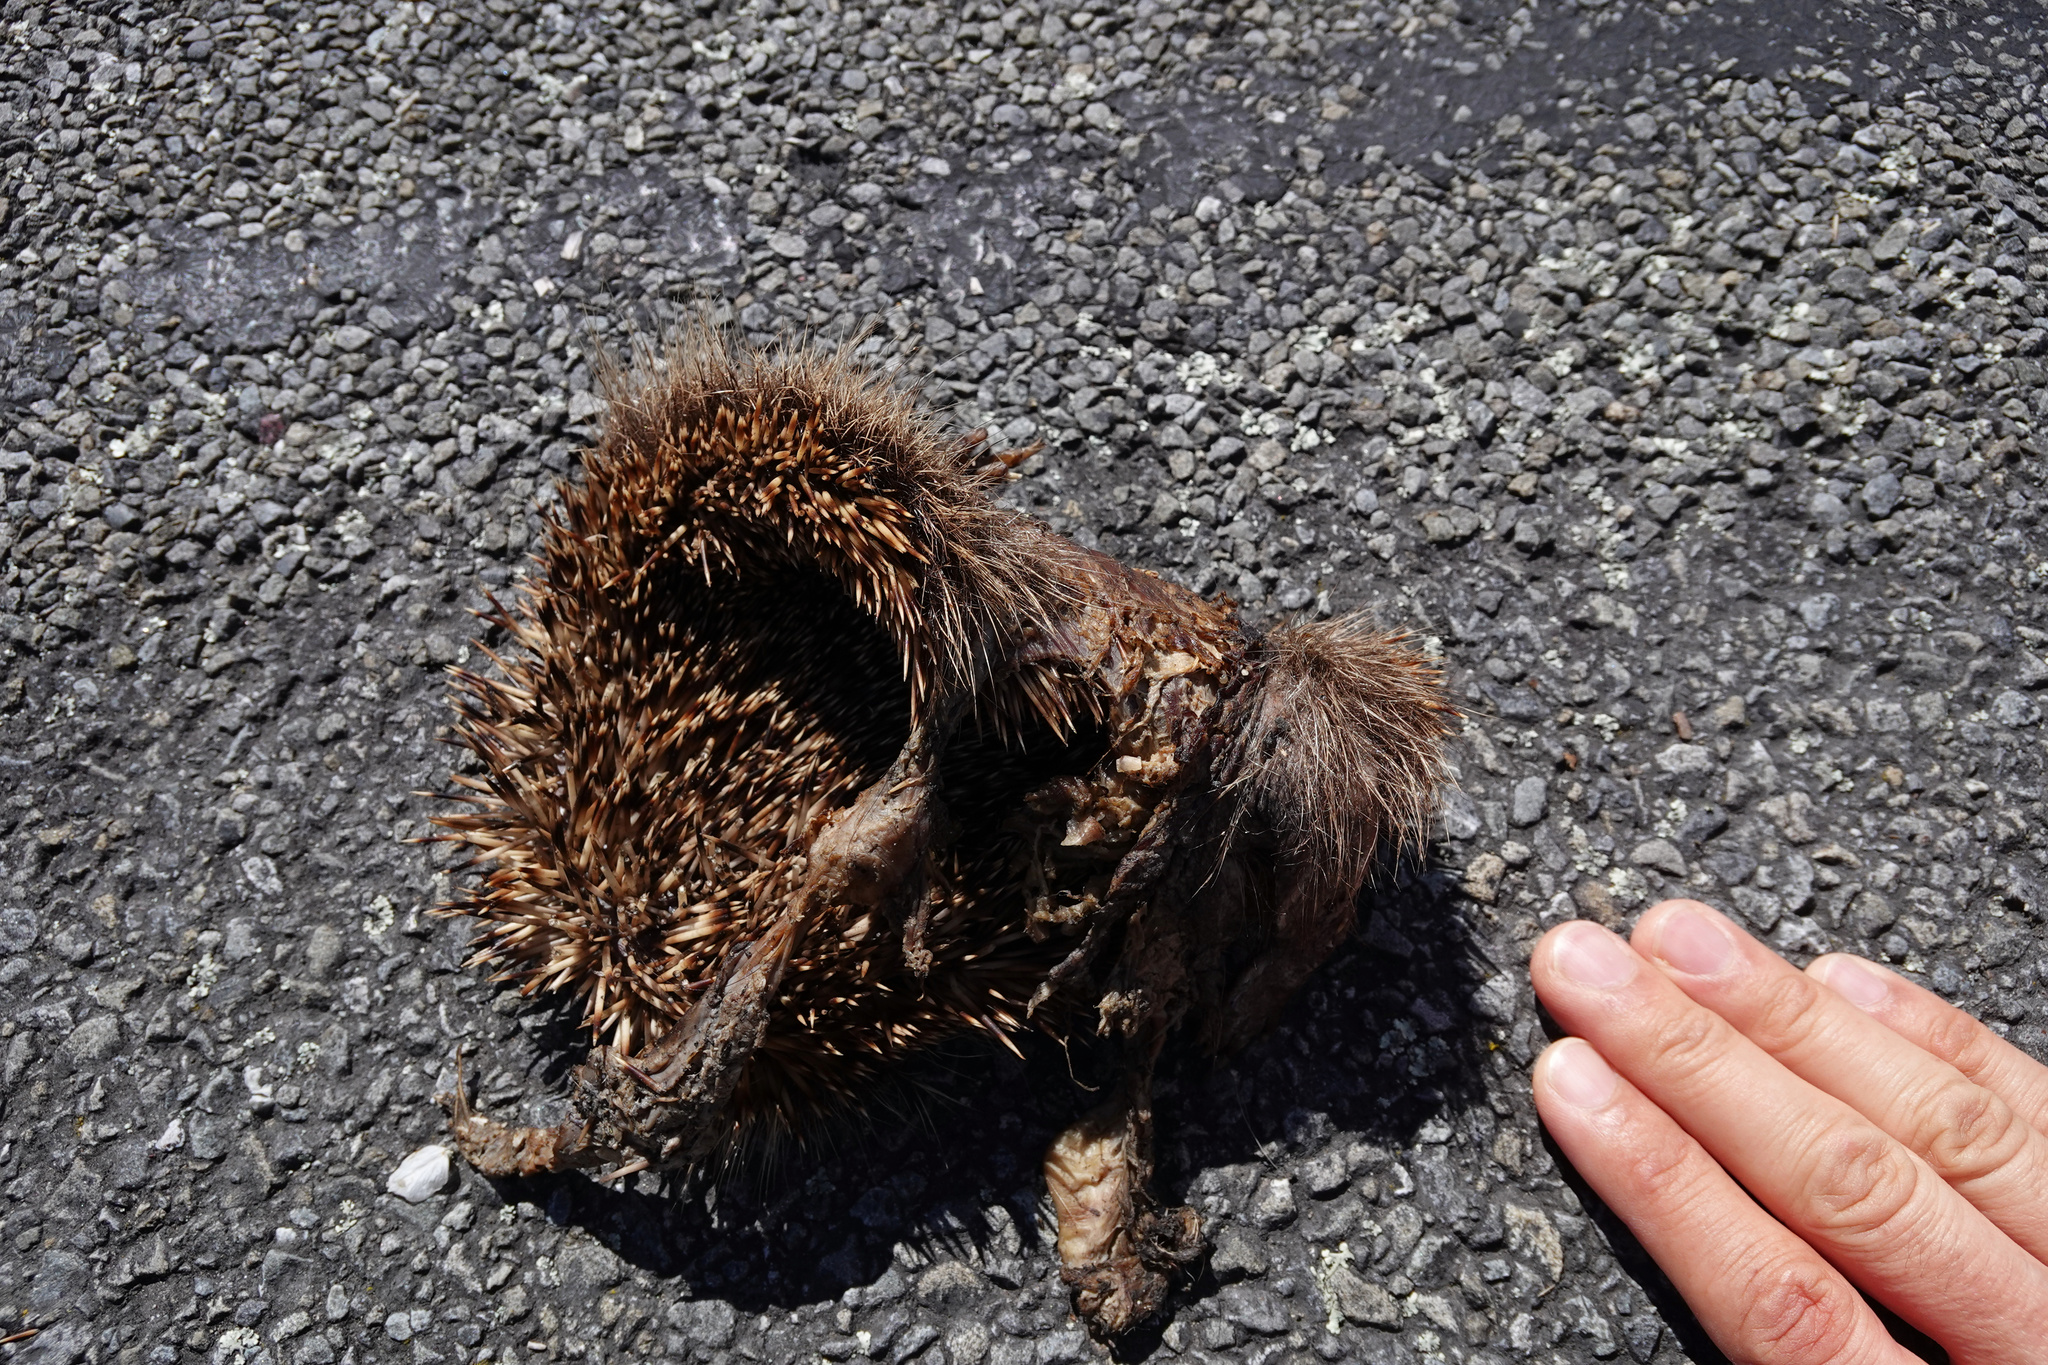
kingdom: Animalia
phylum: Chordata
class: Mammalia
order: Erinaceomorpha
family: Erinaceidae
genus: Erinaceus
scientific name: Erinaceus europaeus
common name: West european hedgehog
